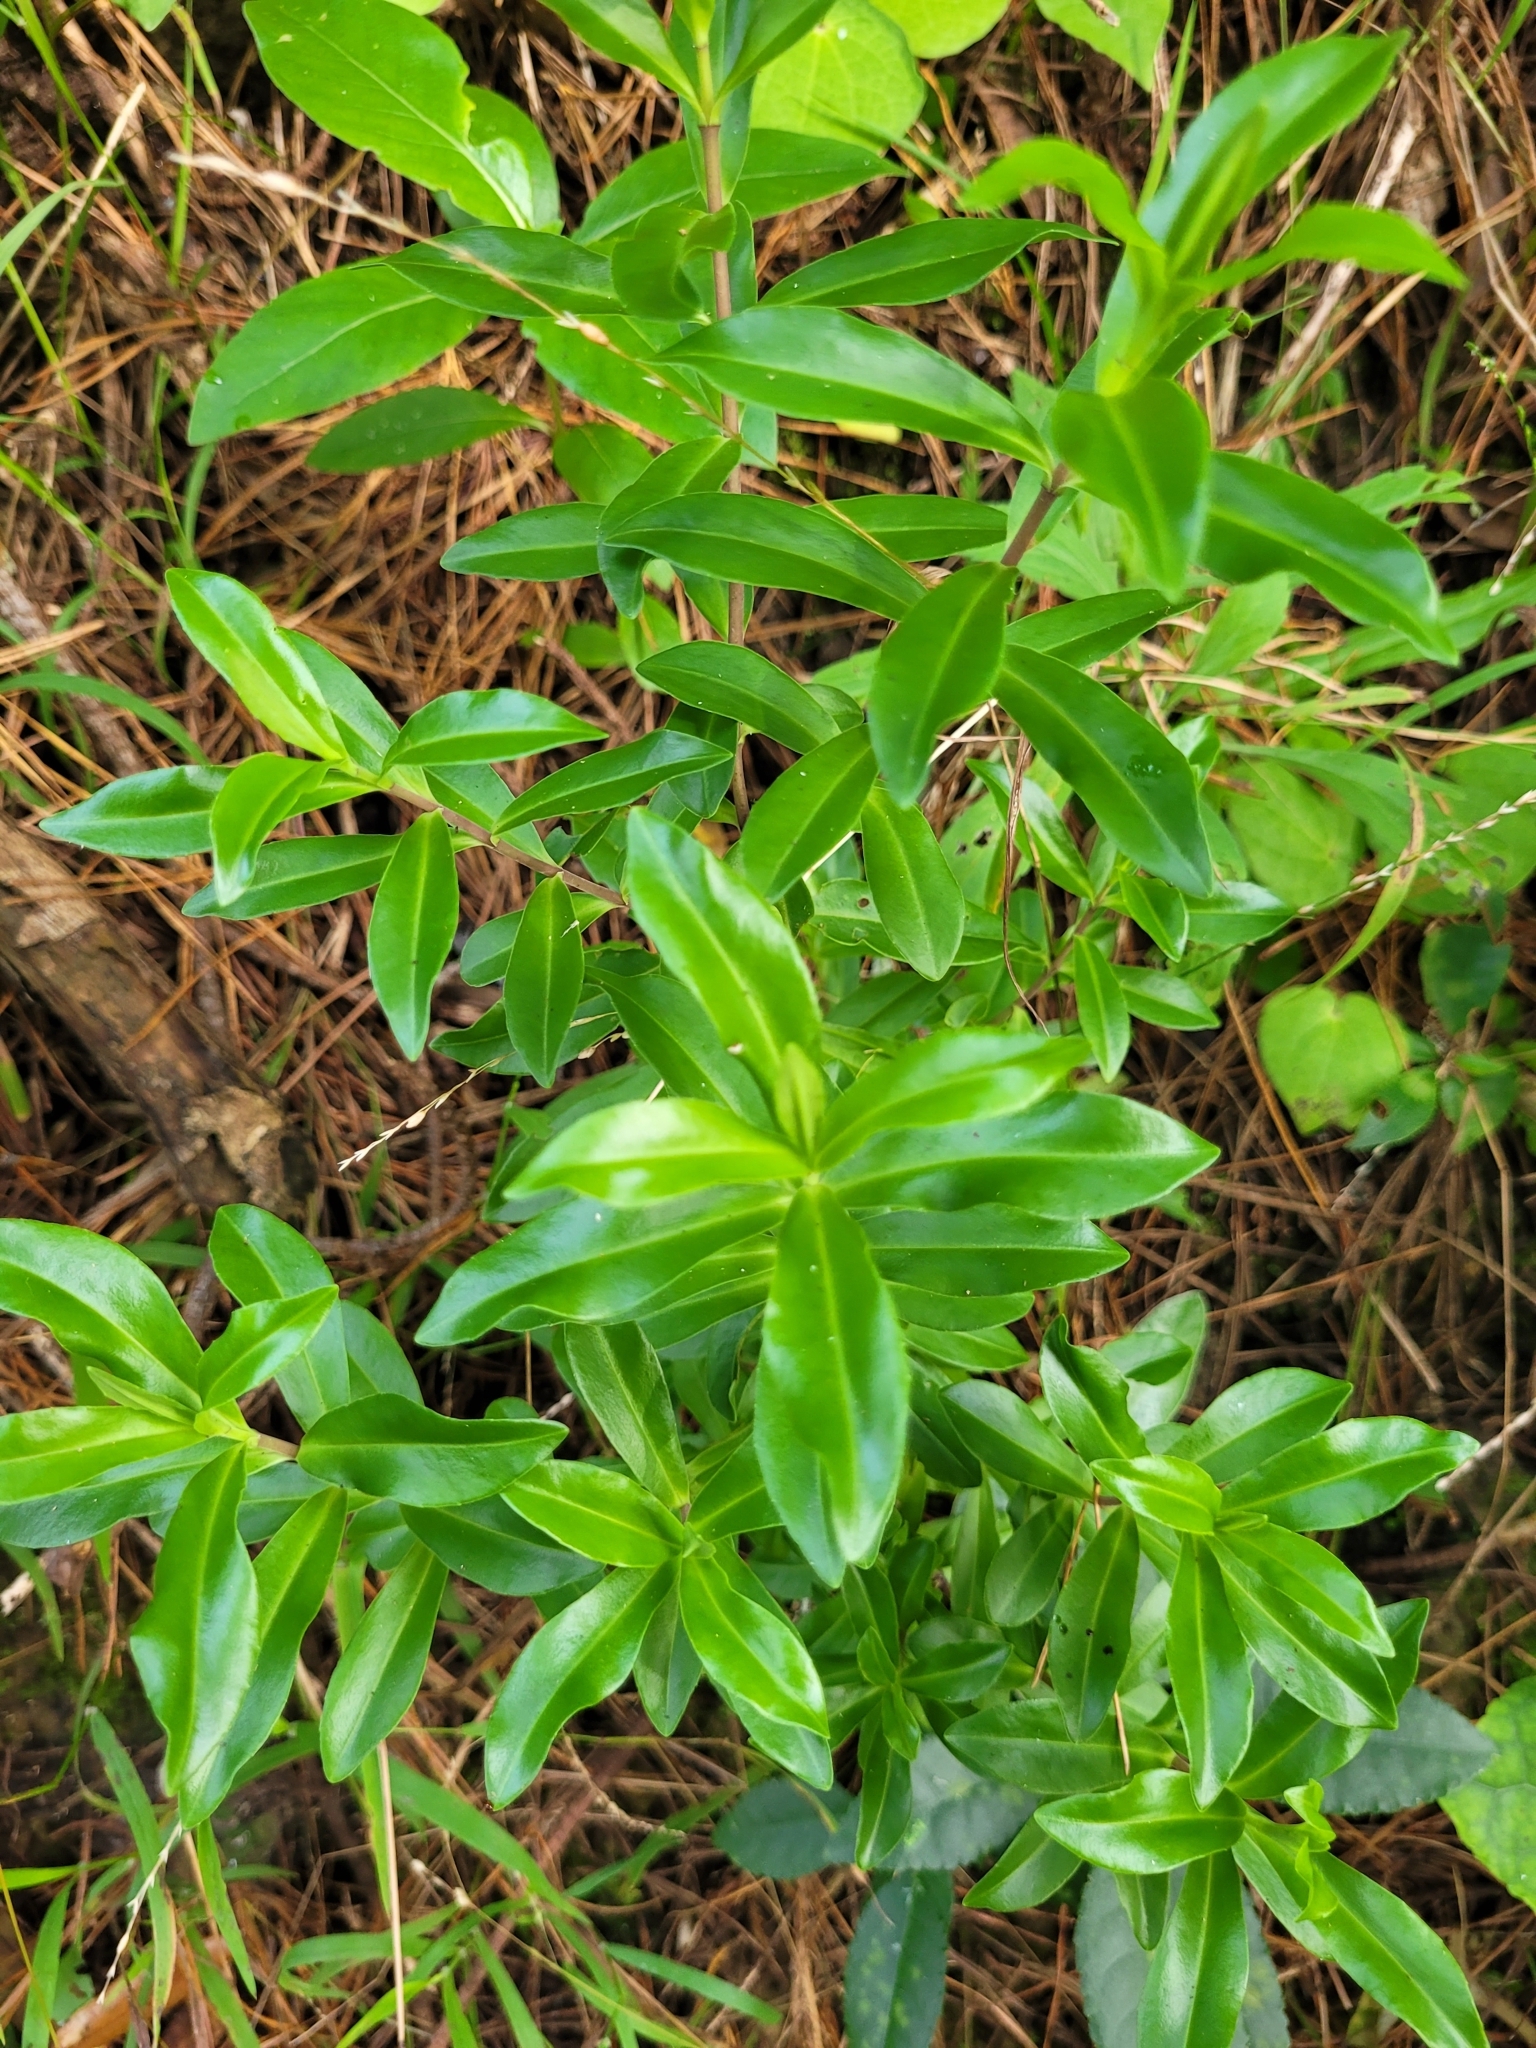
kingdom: Plantae
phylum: Tracheophyta
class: Magnoliopsida
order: Lamiales
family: Plantaginaceae
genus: Veronica
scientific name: Veronica stricta
